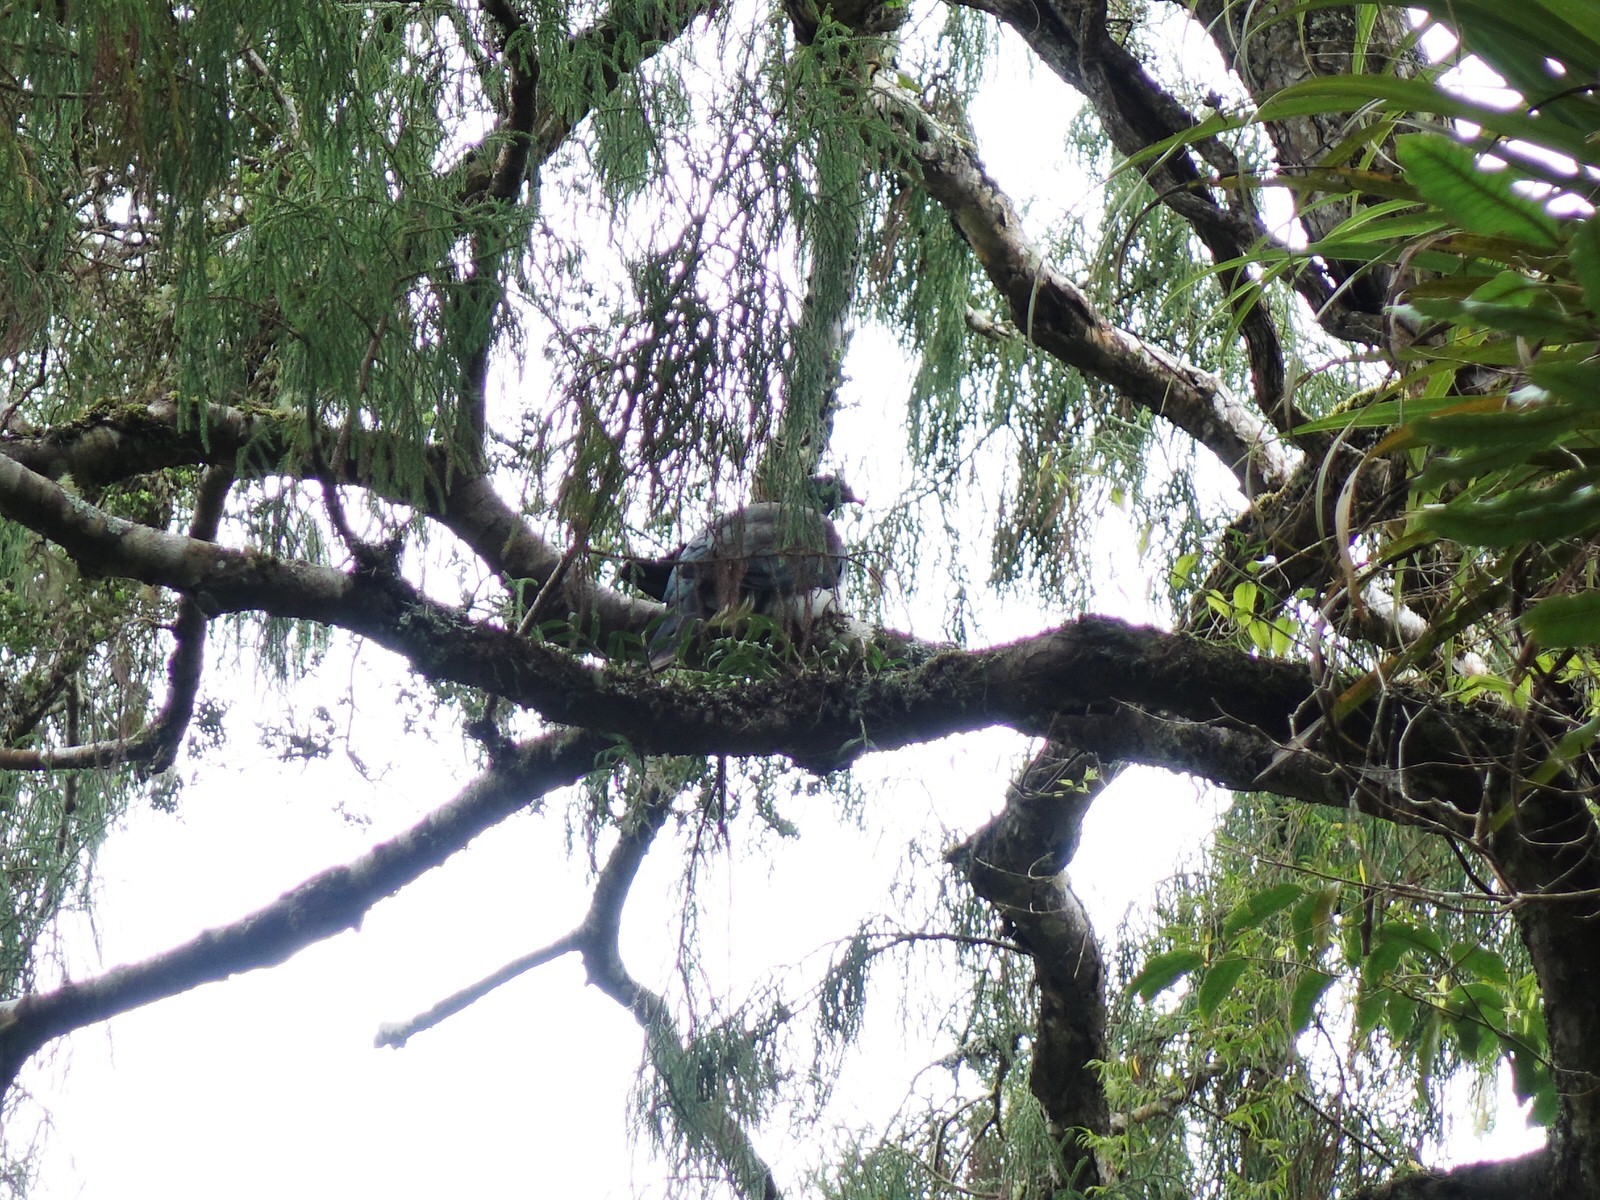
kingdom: Animalia
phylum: Chordata
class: Aves
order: Columbiformes
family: Columbidae
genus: Hemiphaga
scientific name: Hemiphaga novaeseelandiae
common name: New zealand pigeon
